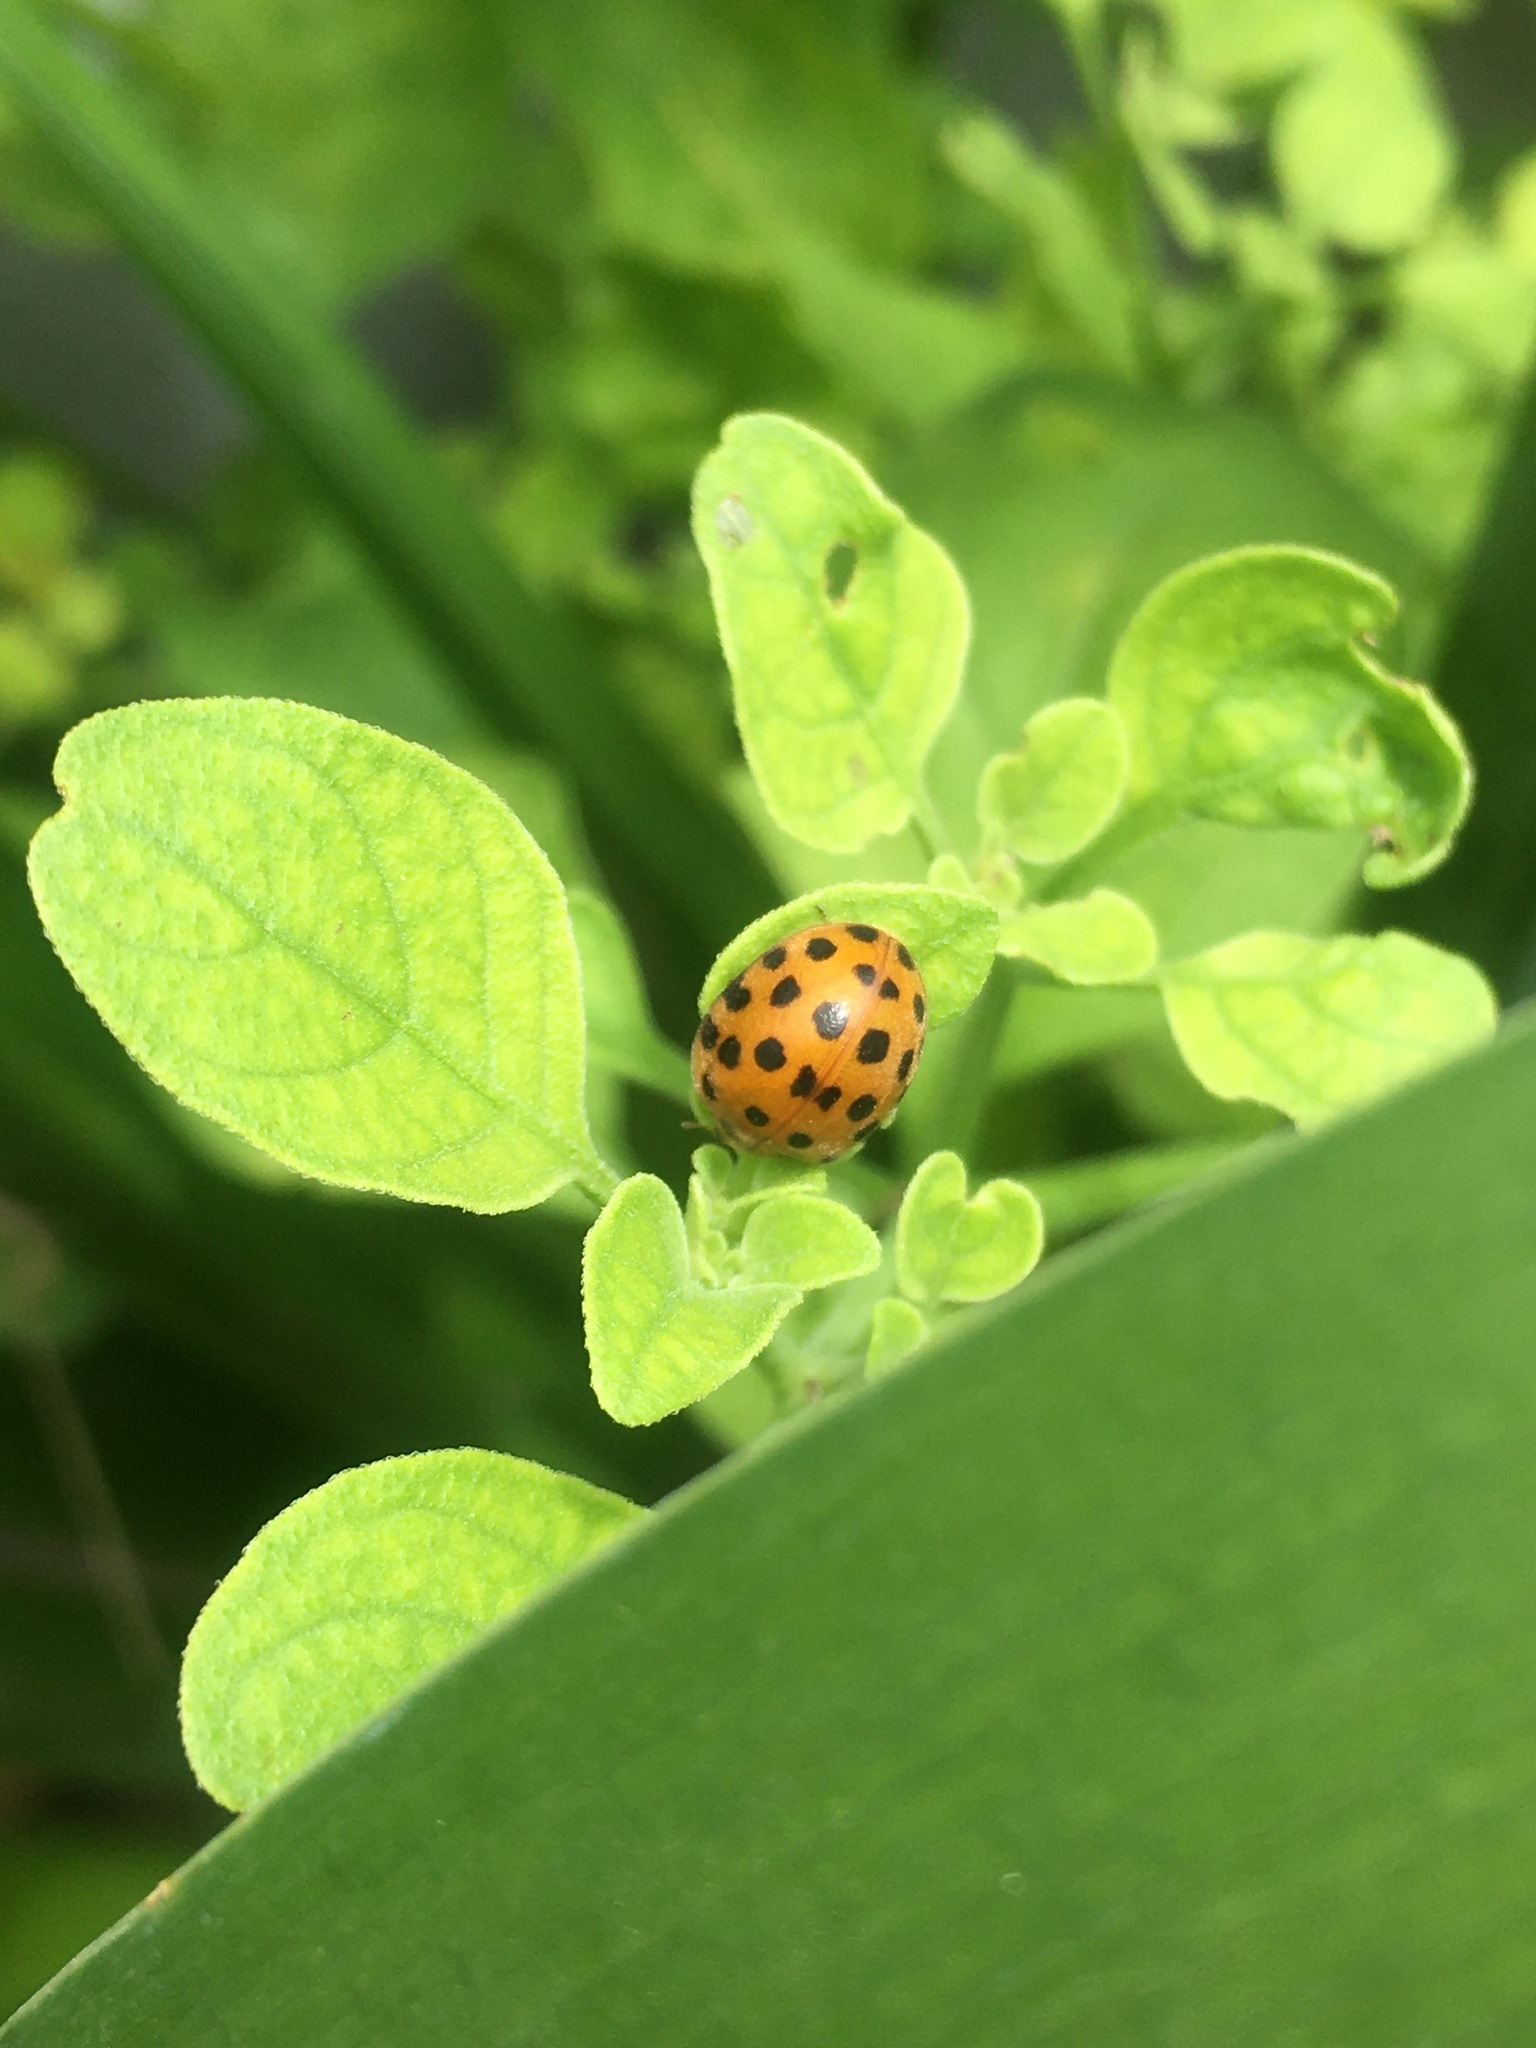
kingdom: Animalia
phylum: Arthropoda
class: Insecta
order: Coleoptera
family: Coccinellidae
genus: Henosepilachna
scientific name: Henosepilachna vigintioctopunctata
